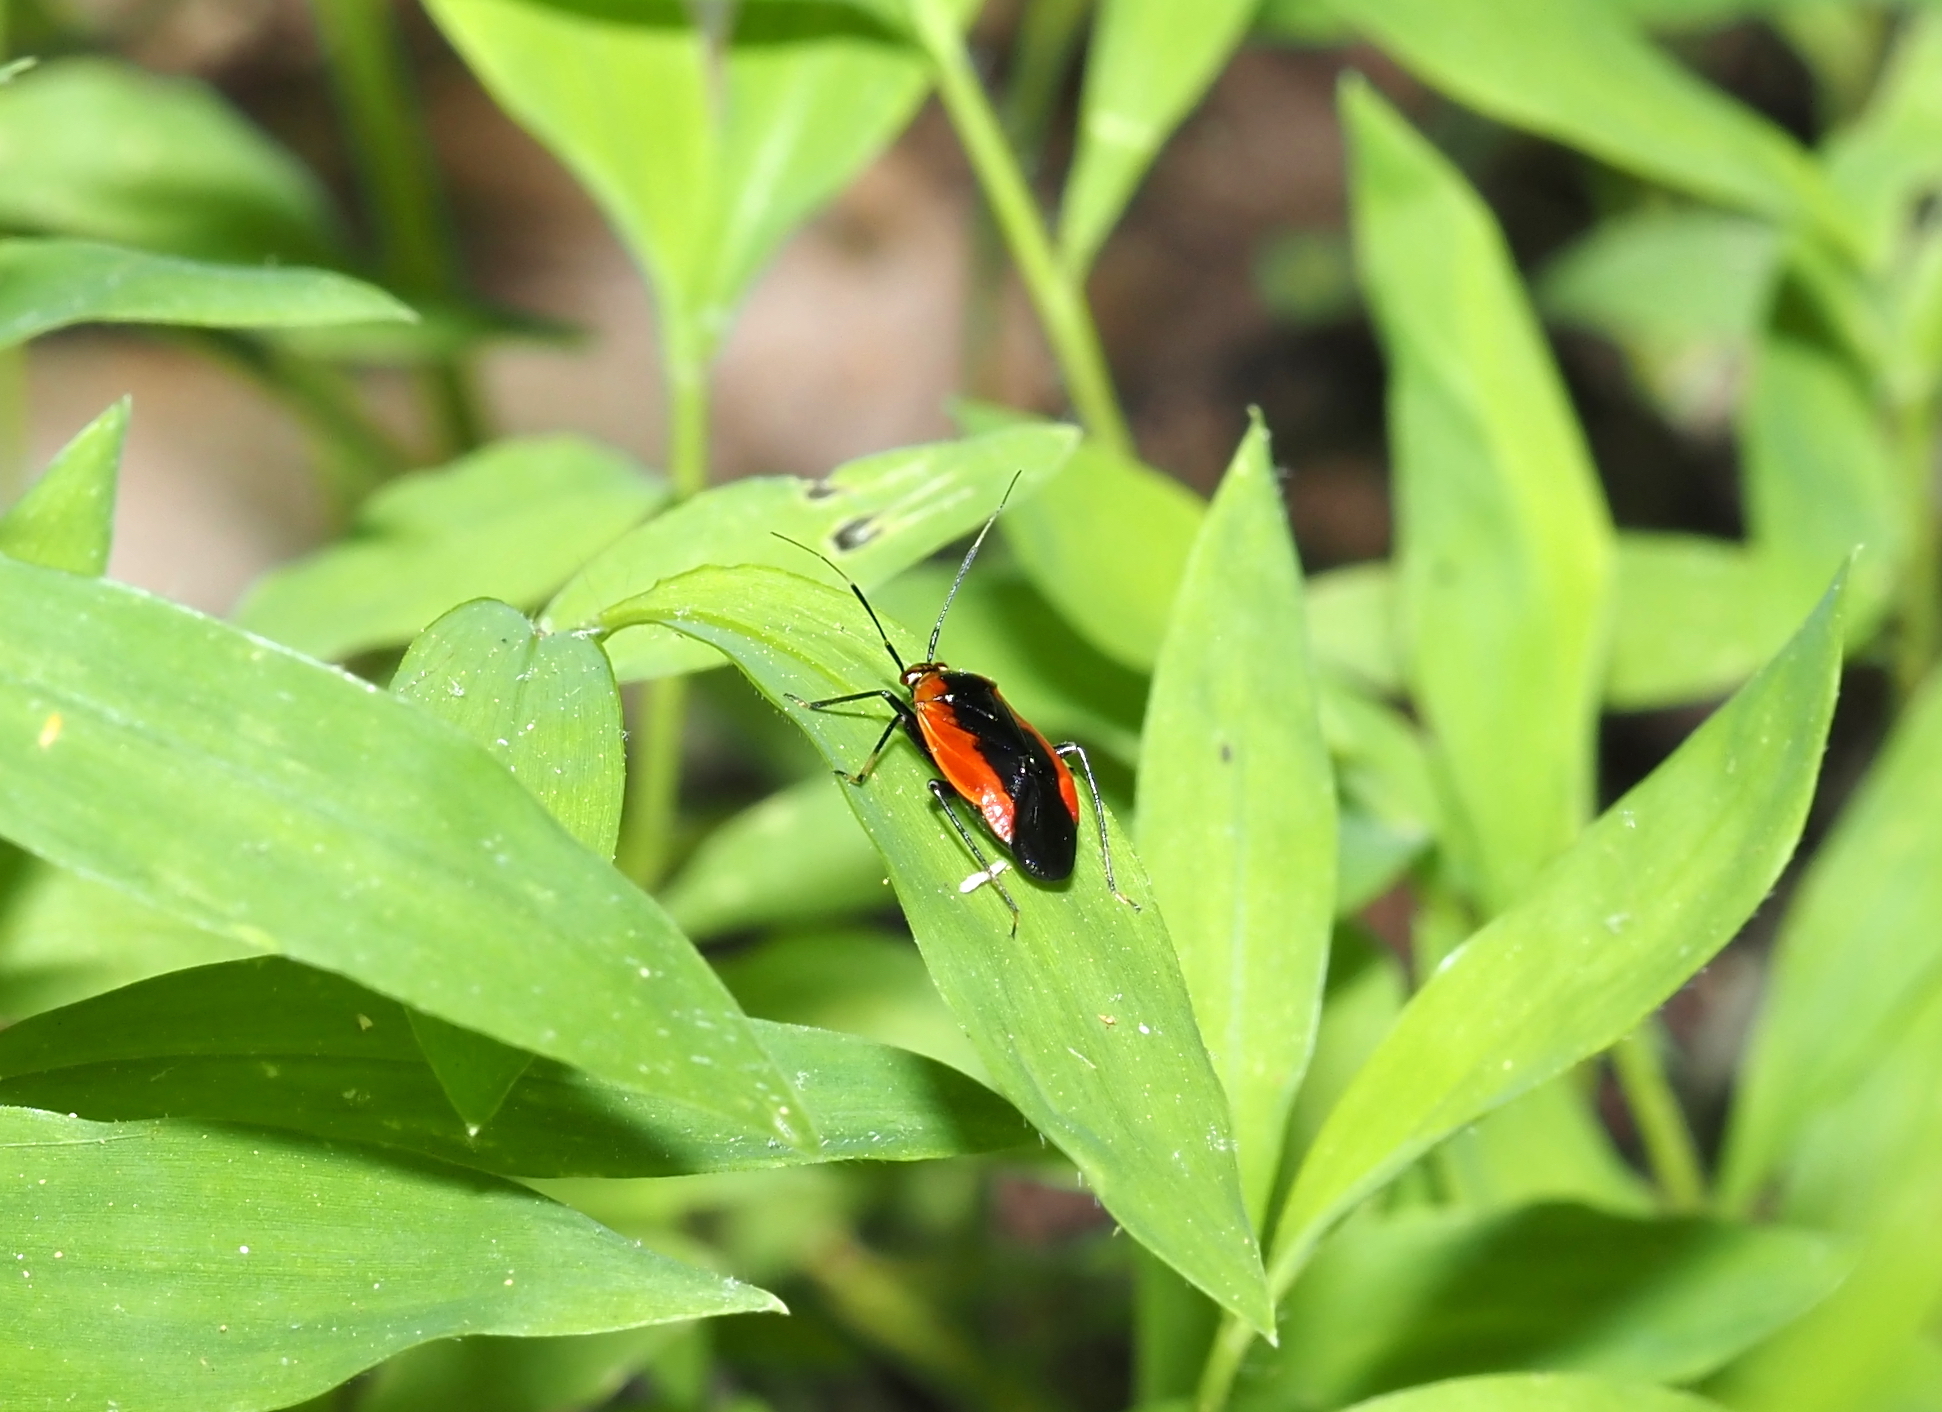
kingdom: Animalia
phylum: Arthropoda
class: Insecta
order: Hemiptera
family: Miridae
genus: Metriorrhynchomiris
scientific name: Metriorrhynchomiris dislocatus
